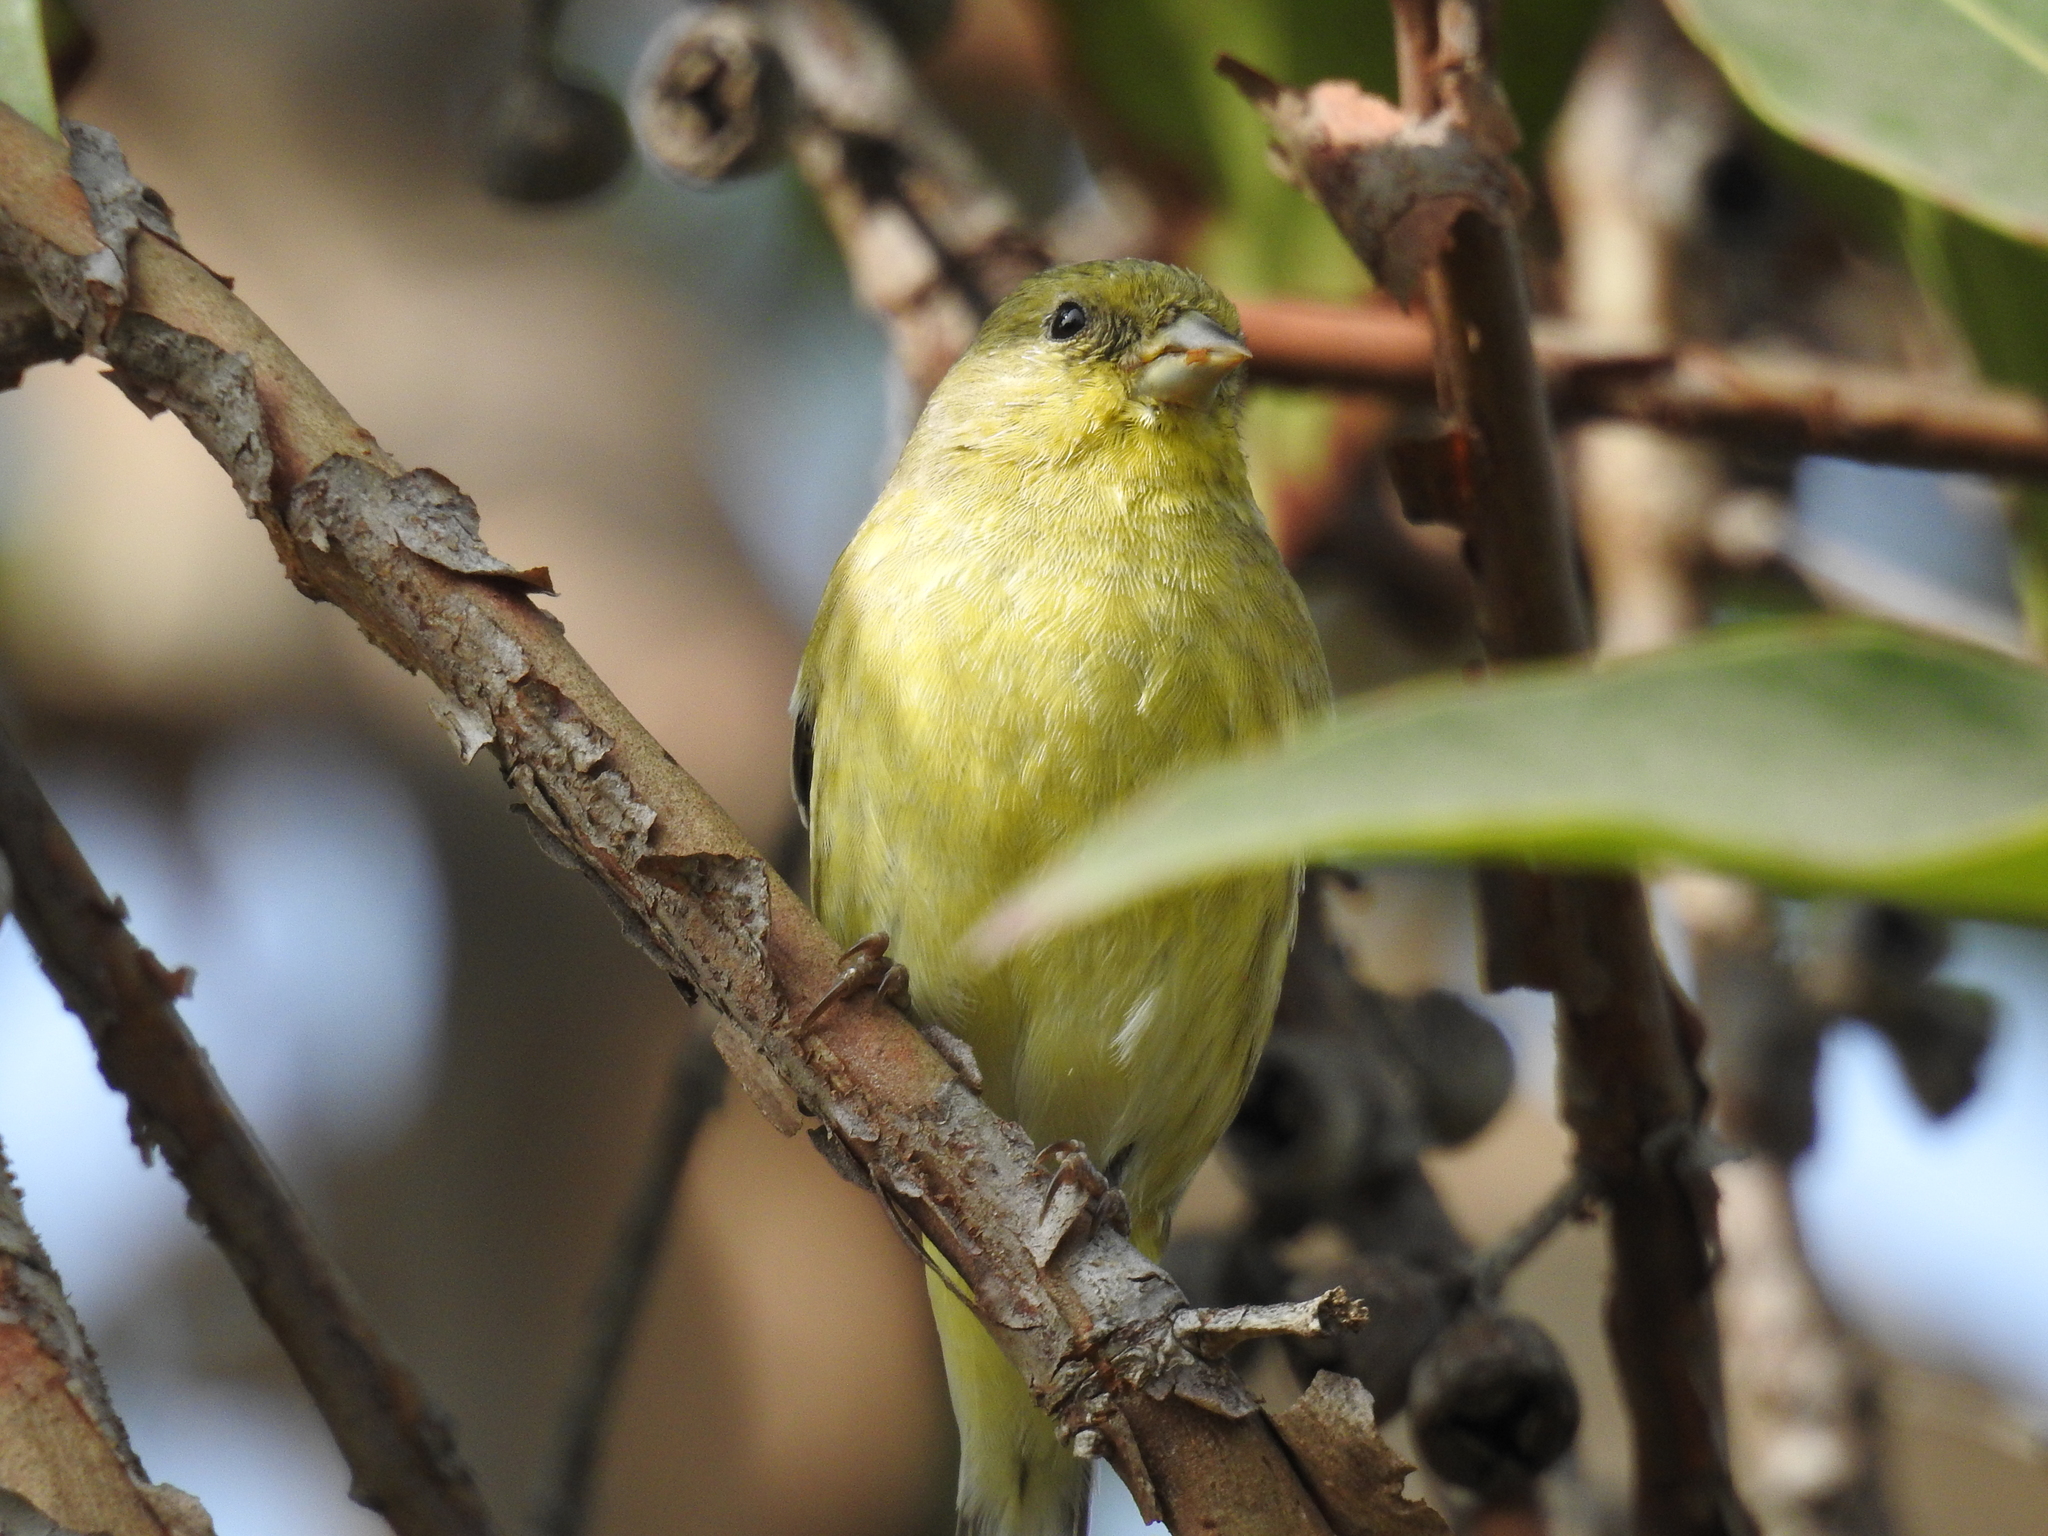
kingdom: Animalia
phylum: Chordata
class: Aves
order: Passeriformes
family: Fringillidae
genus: Spinus
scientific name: Spinus psaltria
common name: Lesser goldfinch
